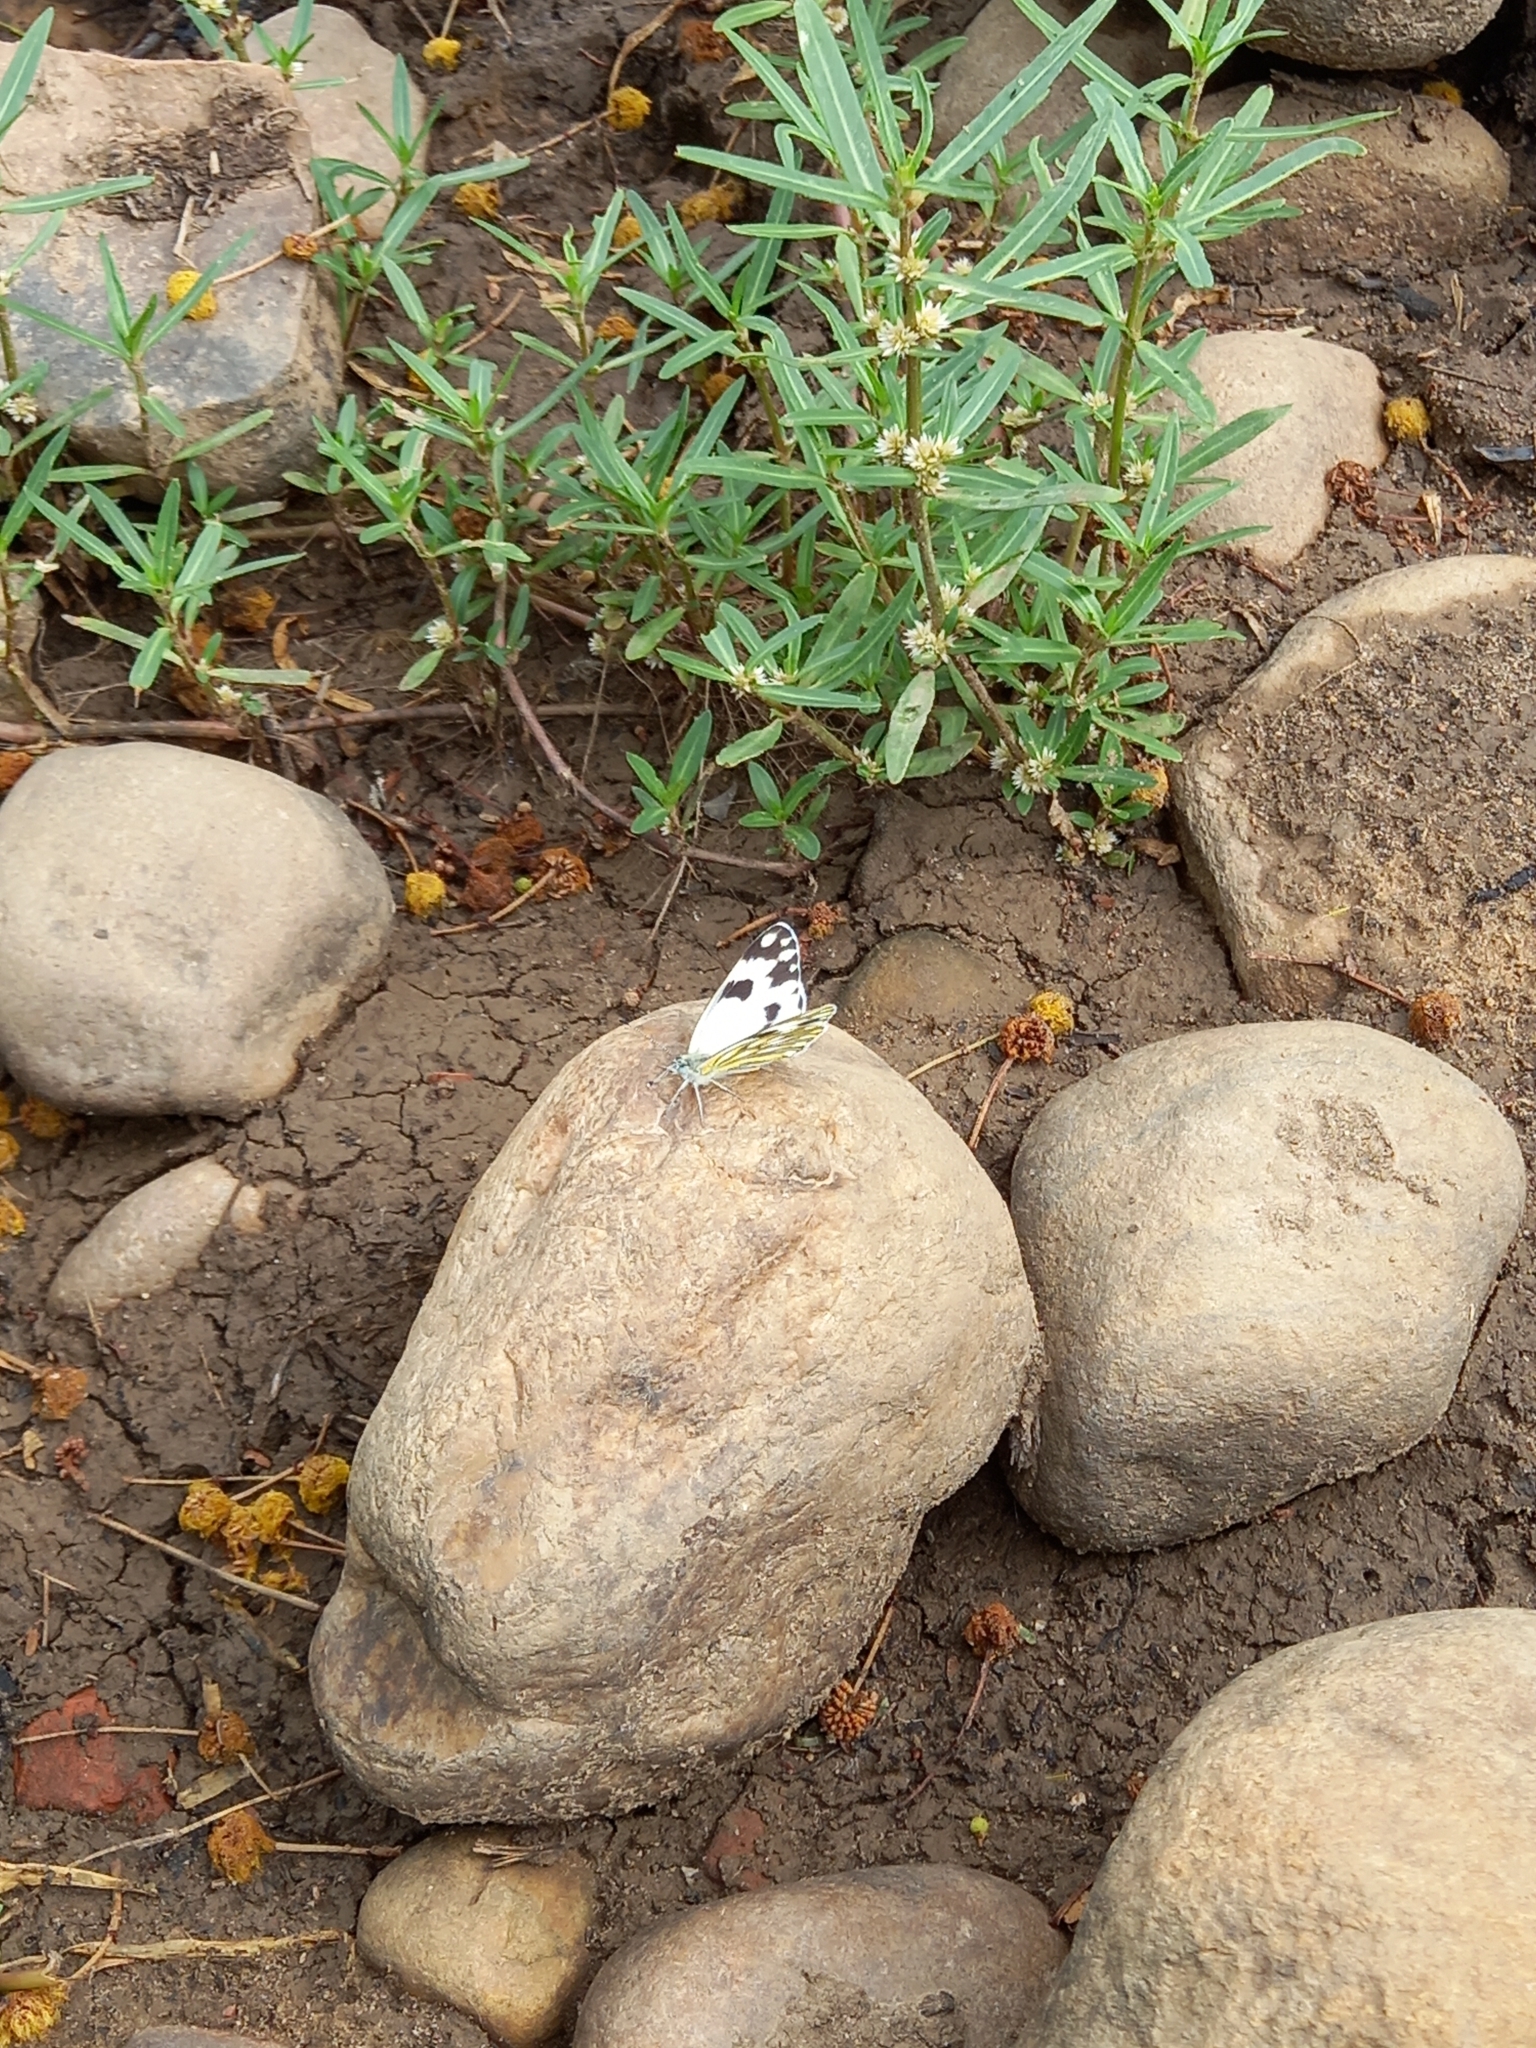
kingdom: Animalia
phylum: Arthropoda
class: Insecta
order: Lepidoptera
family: Pieridae
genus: Pontia
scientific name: Pontia helice
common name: Meadow white
